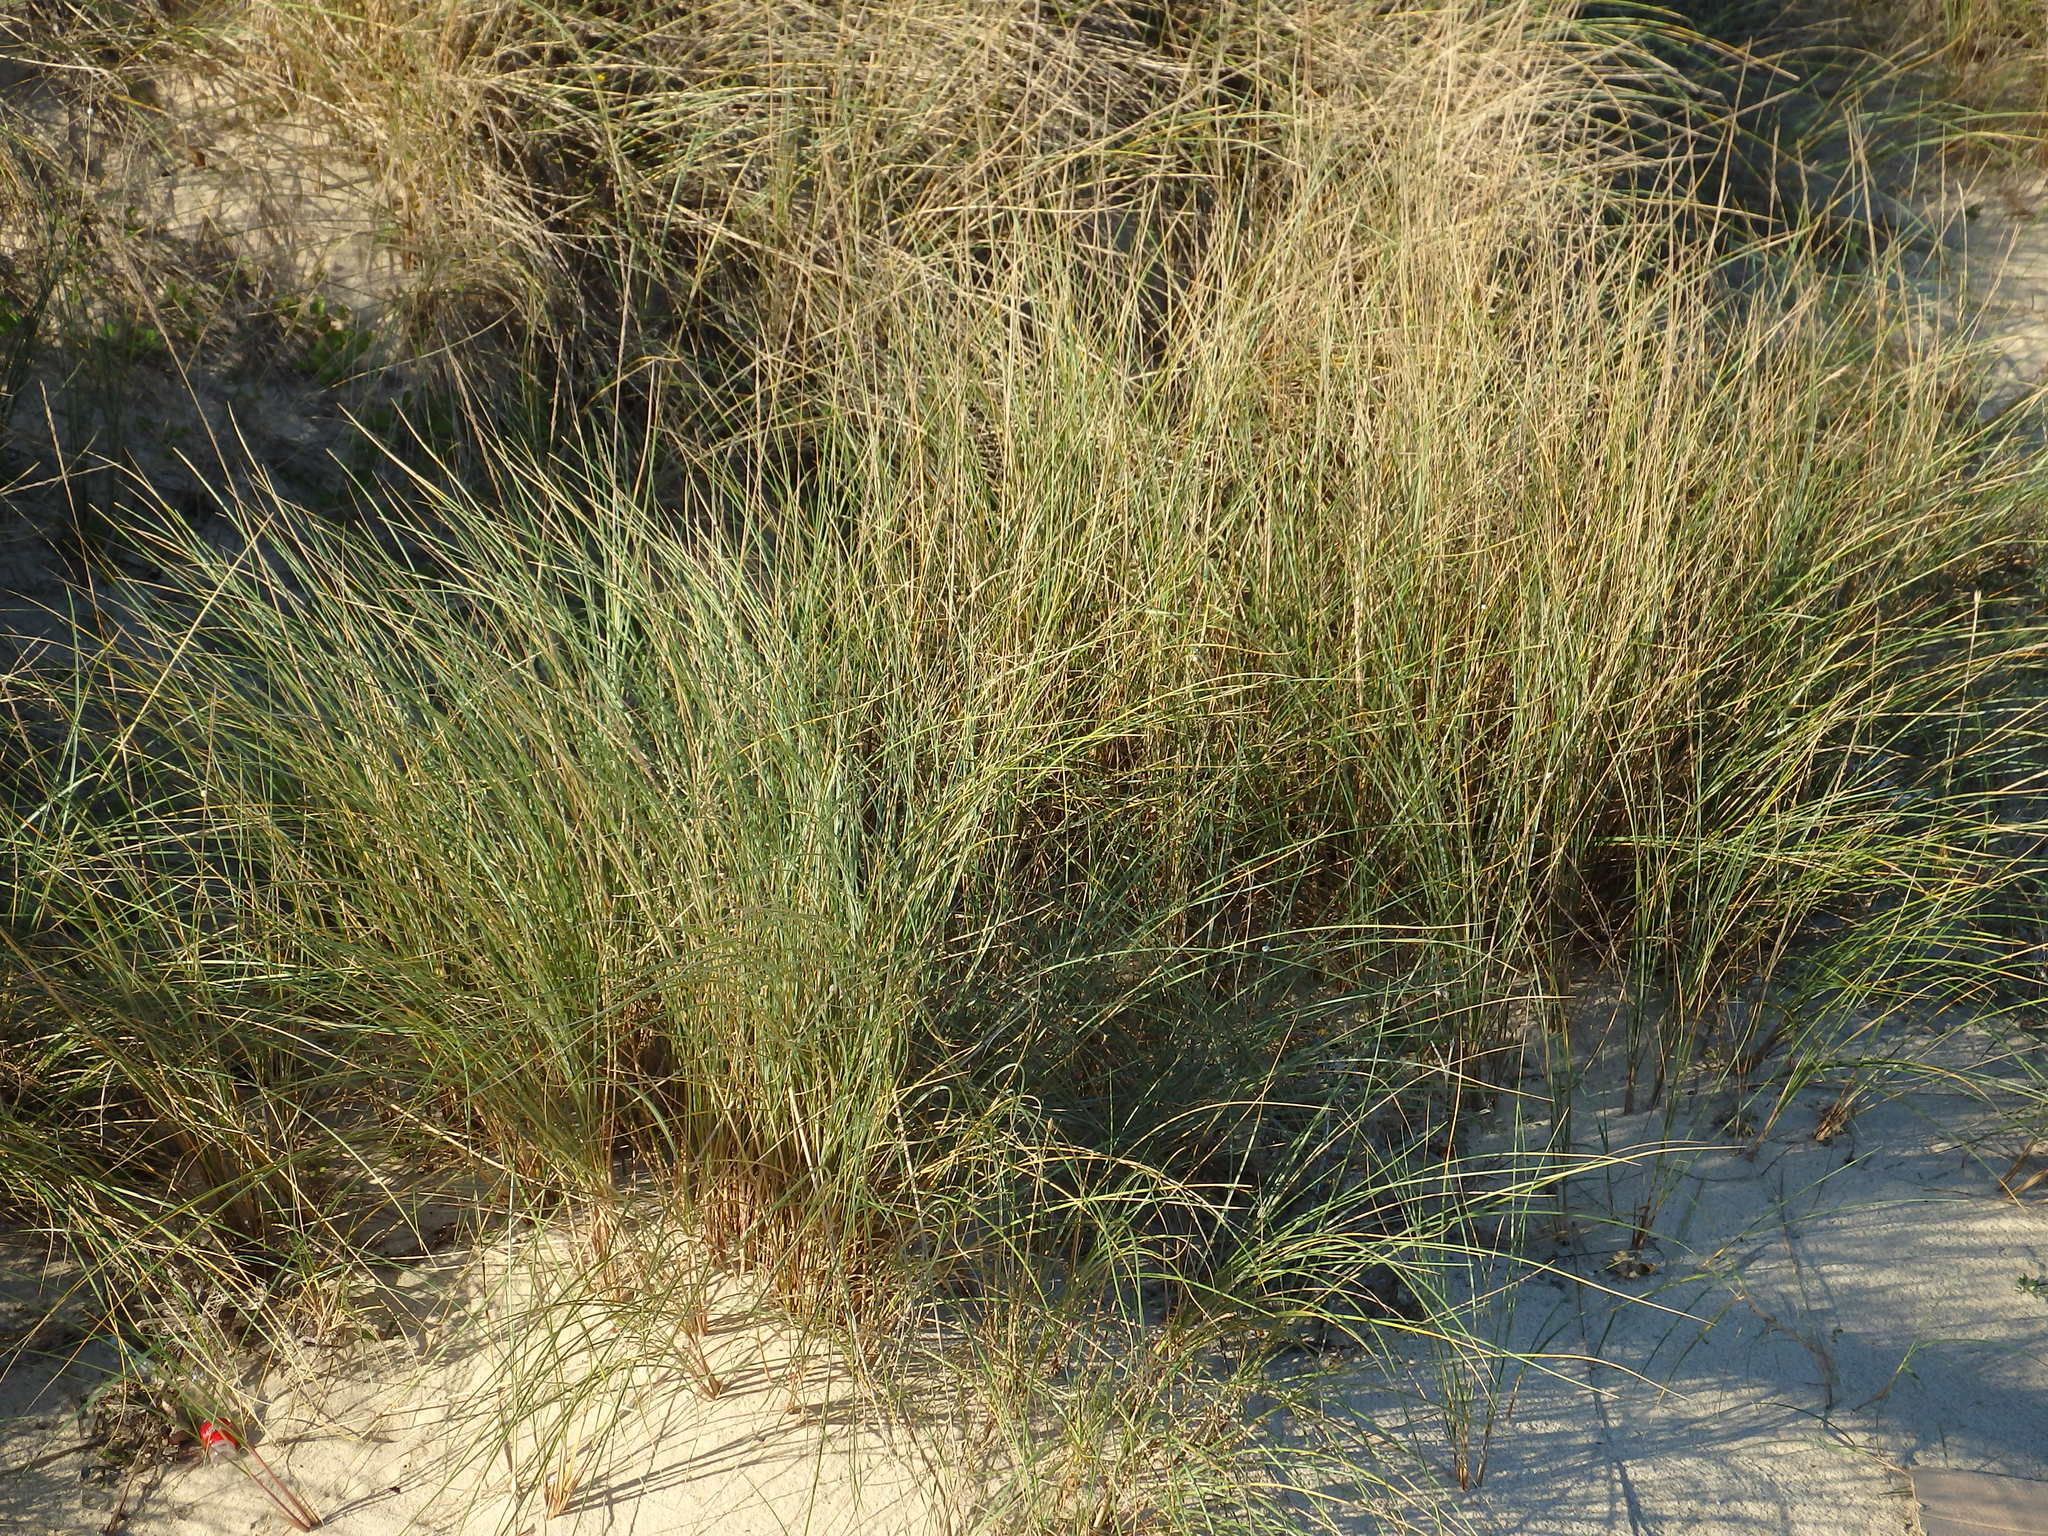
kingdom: Plantae
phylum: Tracheophyta
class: Liliopsida
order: Poales
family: Poaceae
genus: Calamagrostis
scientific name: Calamagrostis arenaria
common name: European beachgrass
